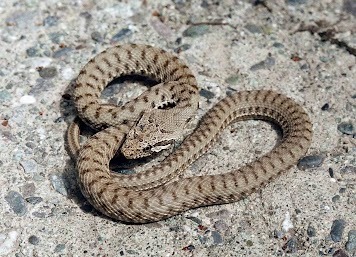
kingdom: Animalia
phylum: Chordata
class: Squamata
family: Colubridae
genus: Hemorrhois
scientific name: Hemorrhois nummifer
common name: Asian racer
